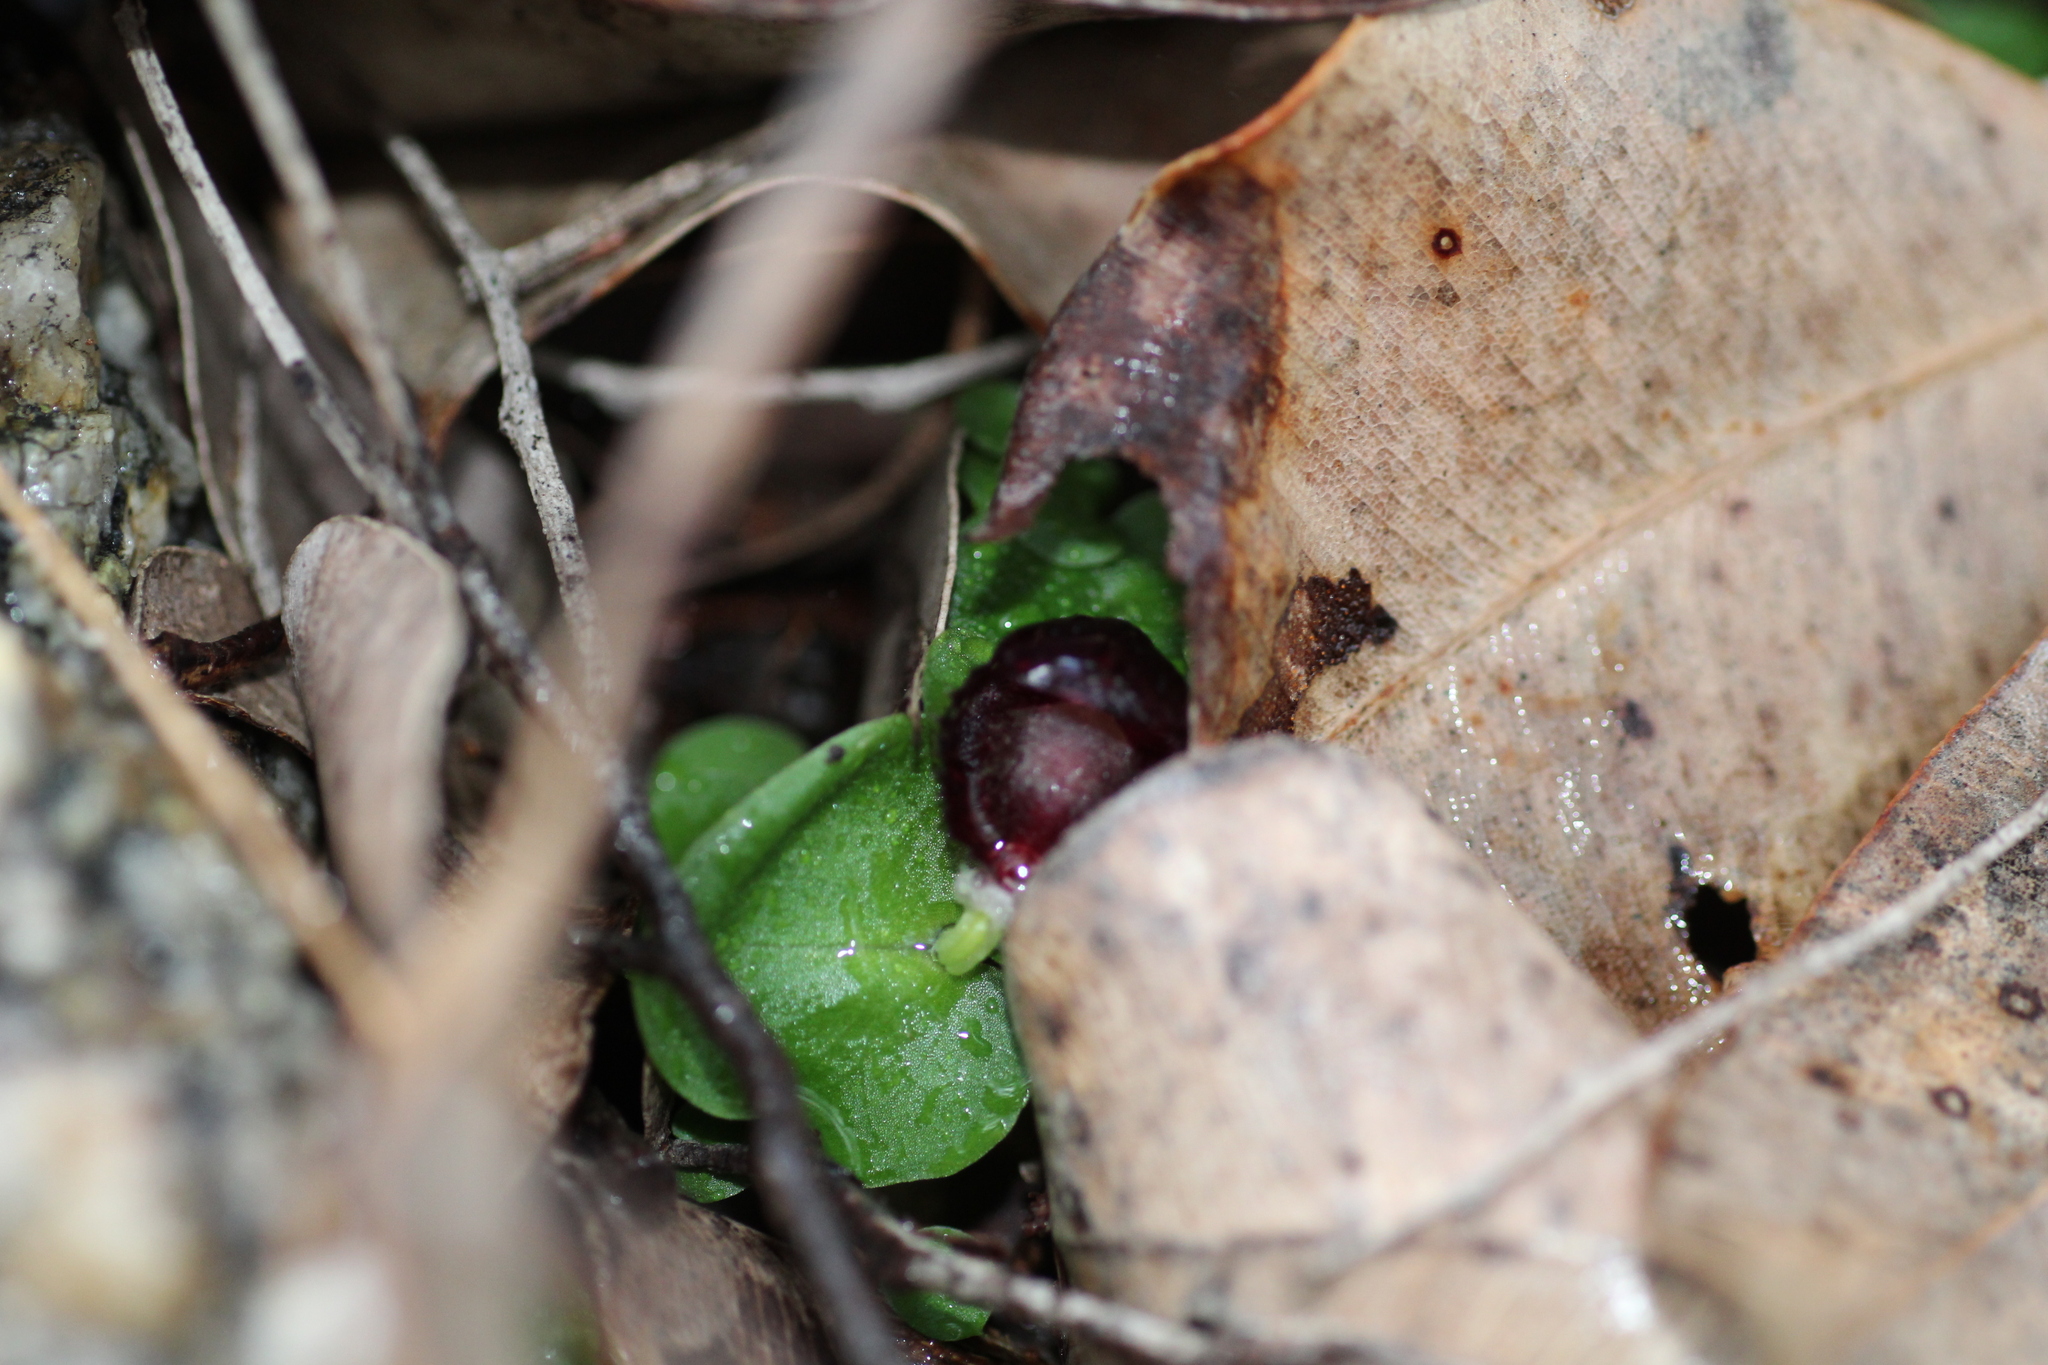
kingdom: Plantae
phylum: Tracheophyta
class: Liliopsida
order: Asparagales
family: Orchidaceae
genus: Corybas
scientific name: Corybas recurvus
